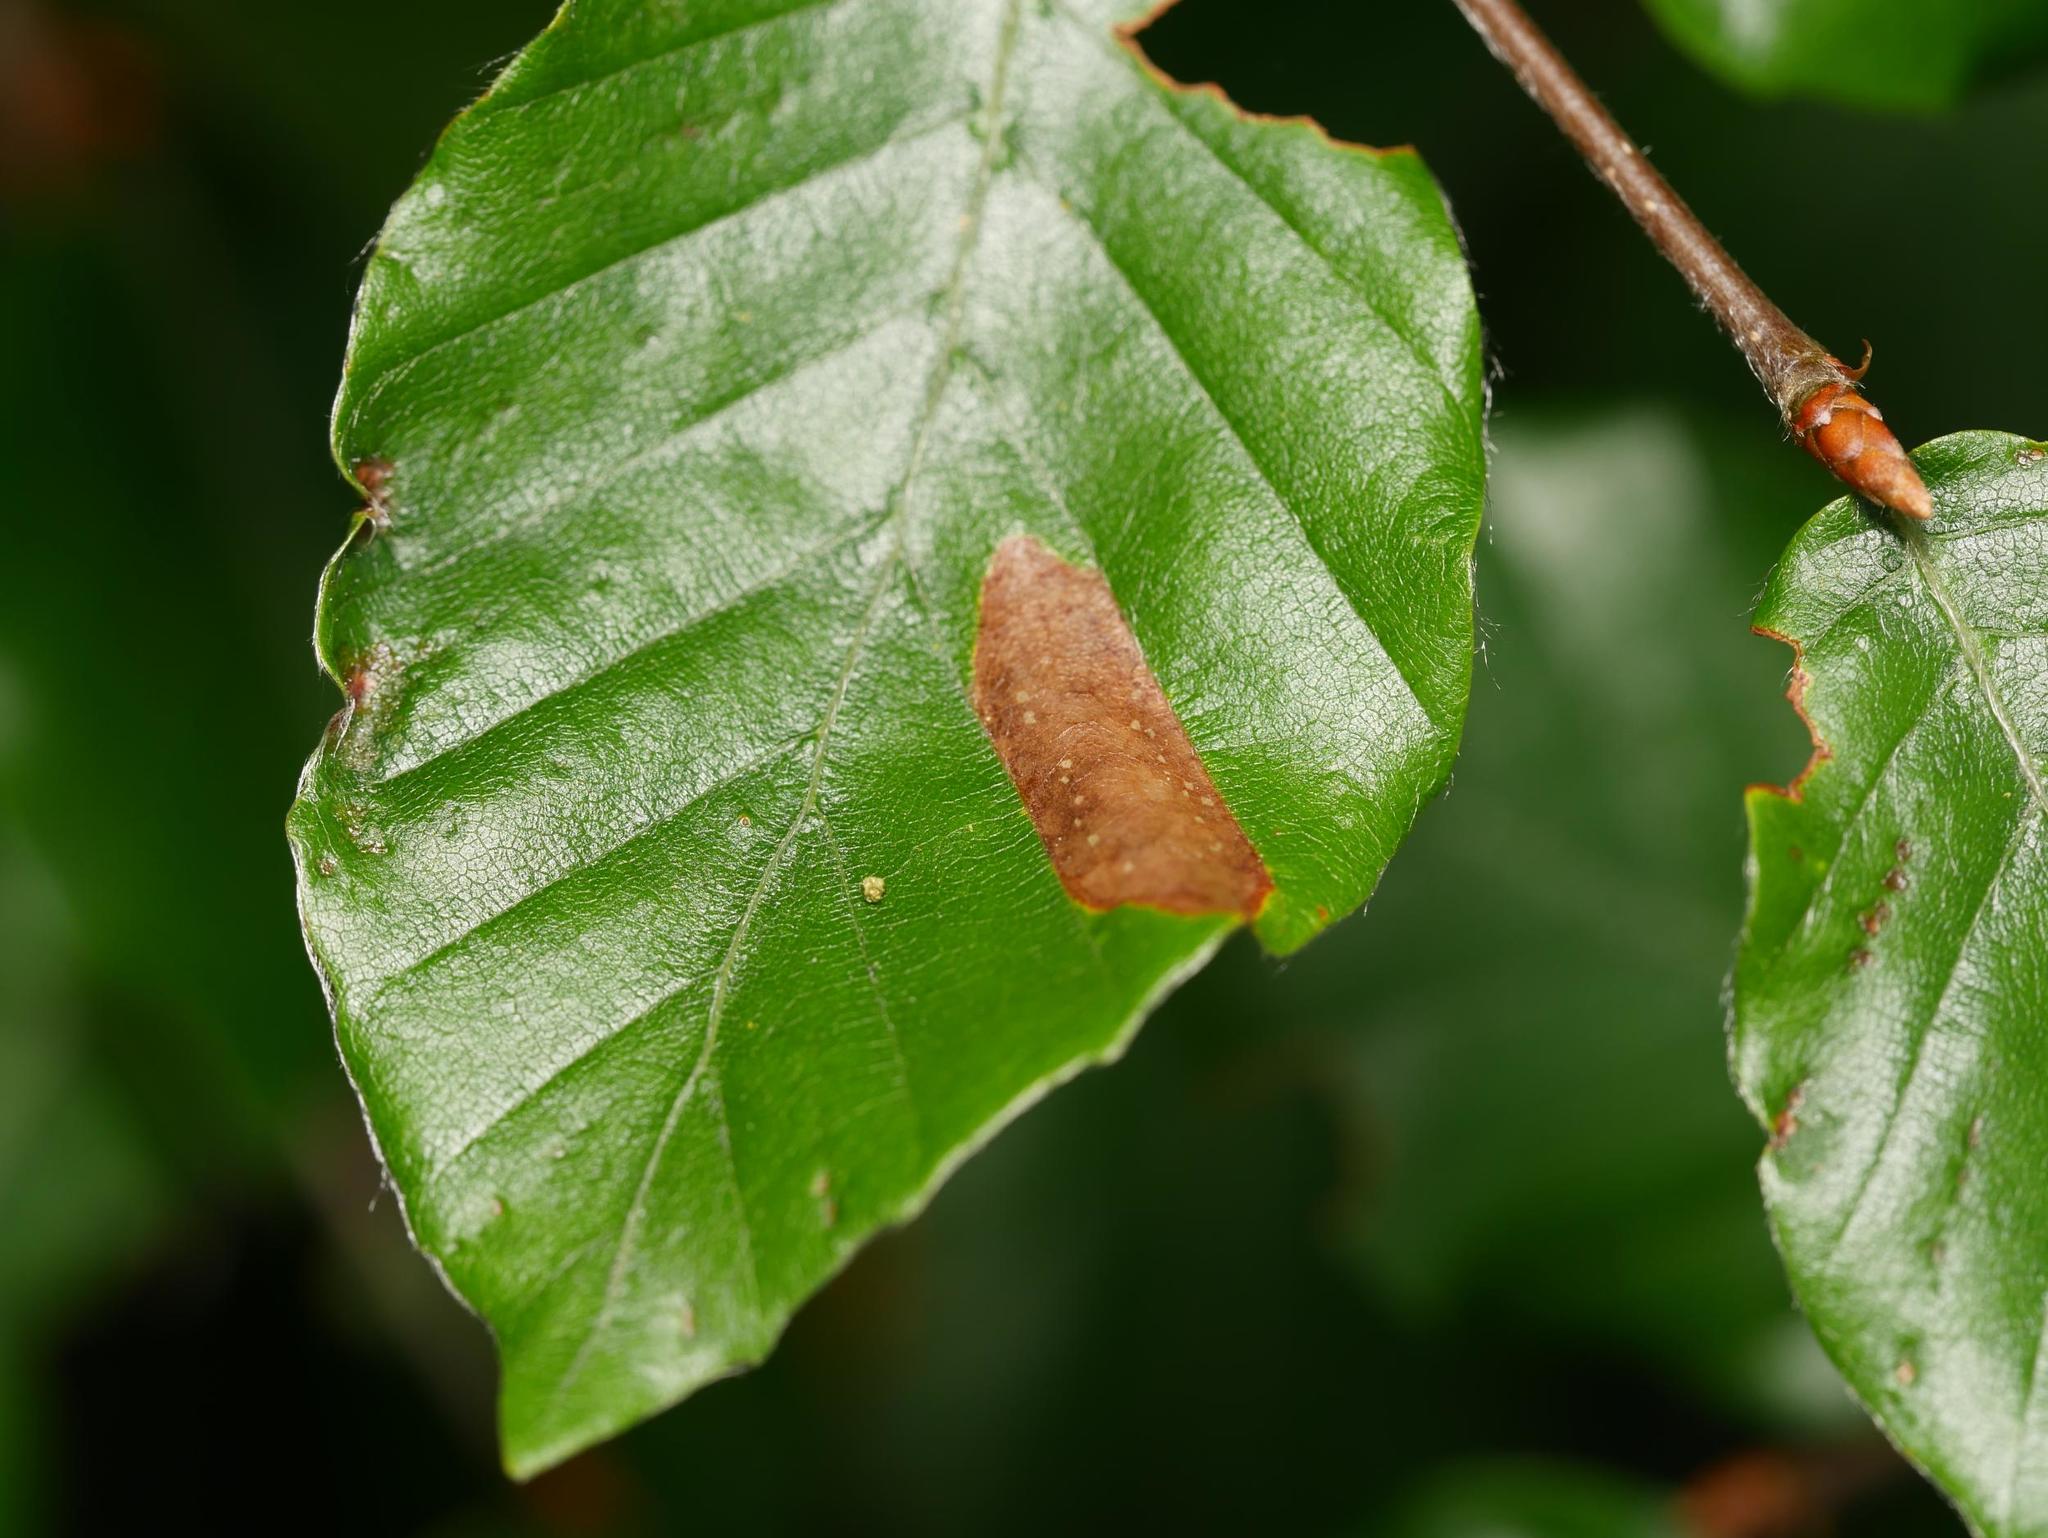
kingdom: Plantae
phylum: Tracheophyta
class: Magnoliopsida
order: Fagales
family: Fagaceae
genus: Fagus
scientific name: Fagus sylvatica
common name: Beech
